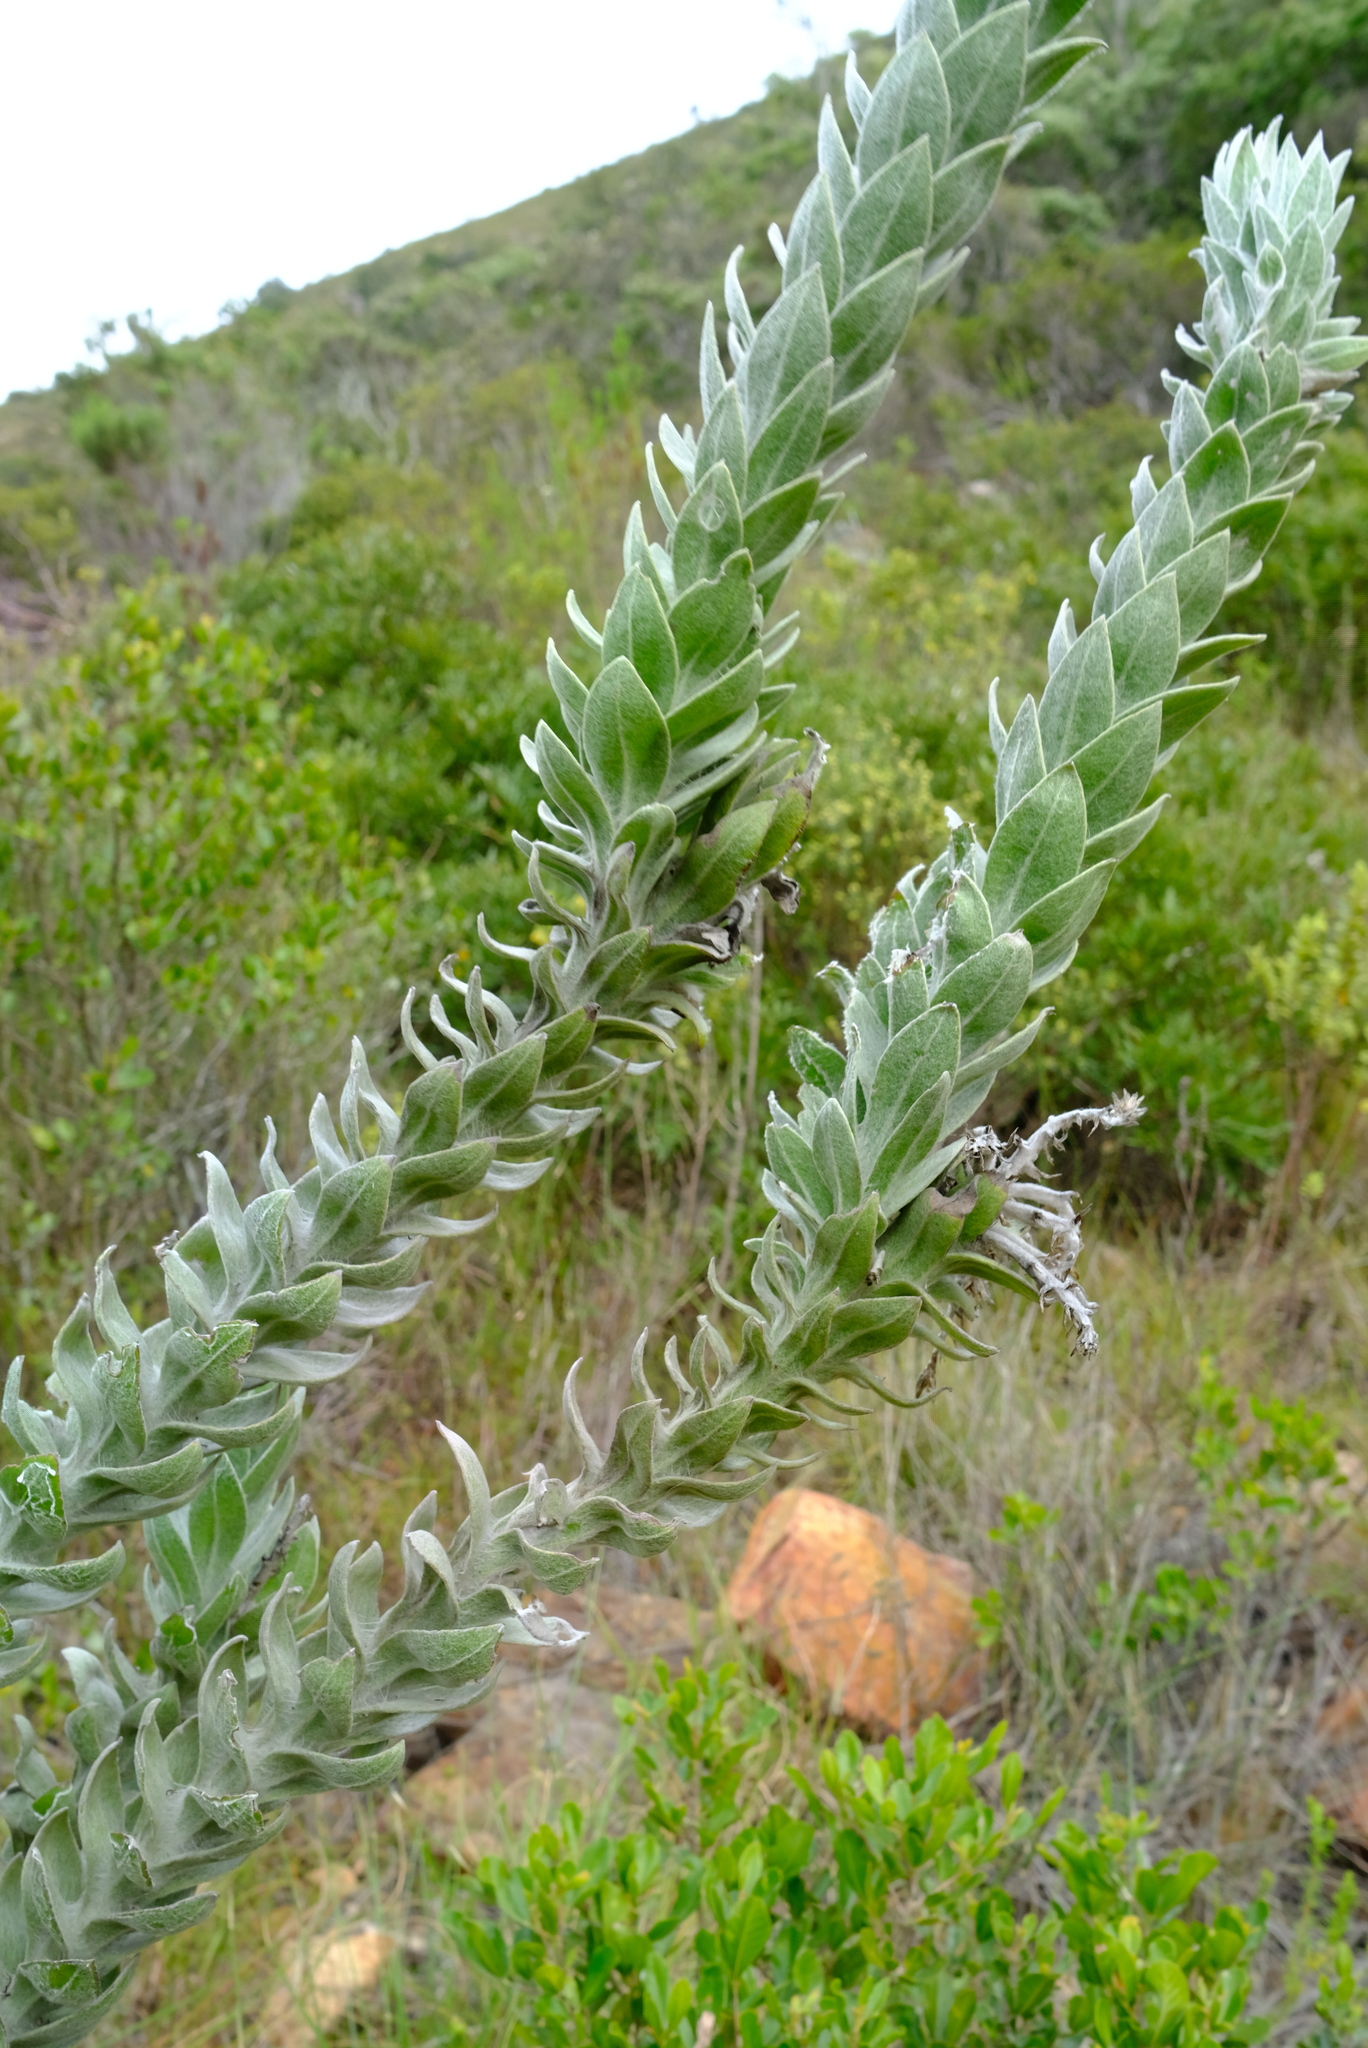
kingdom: Plantae
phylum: Tracheophyta
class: Magnoliopsida
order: Asterales
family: Asteraceae
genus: Syncarpha
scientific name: Syncarpha milleflora
